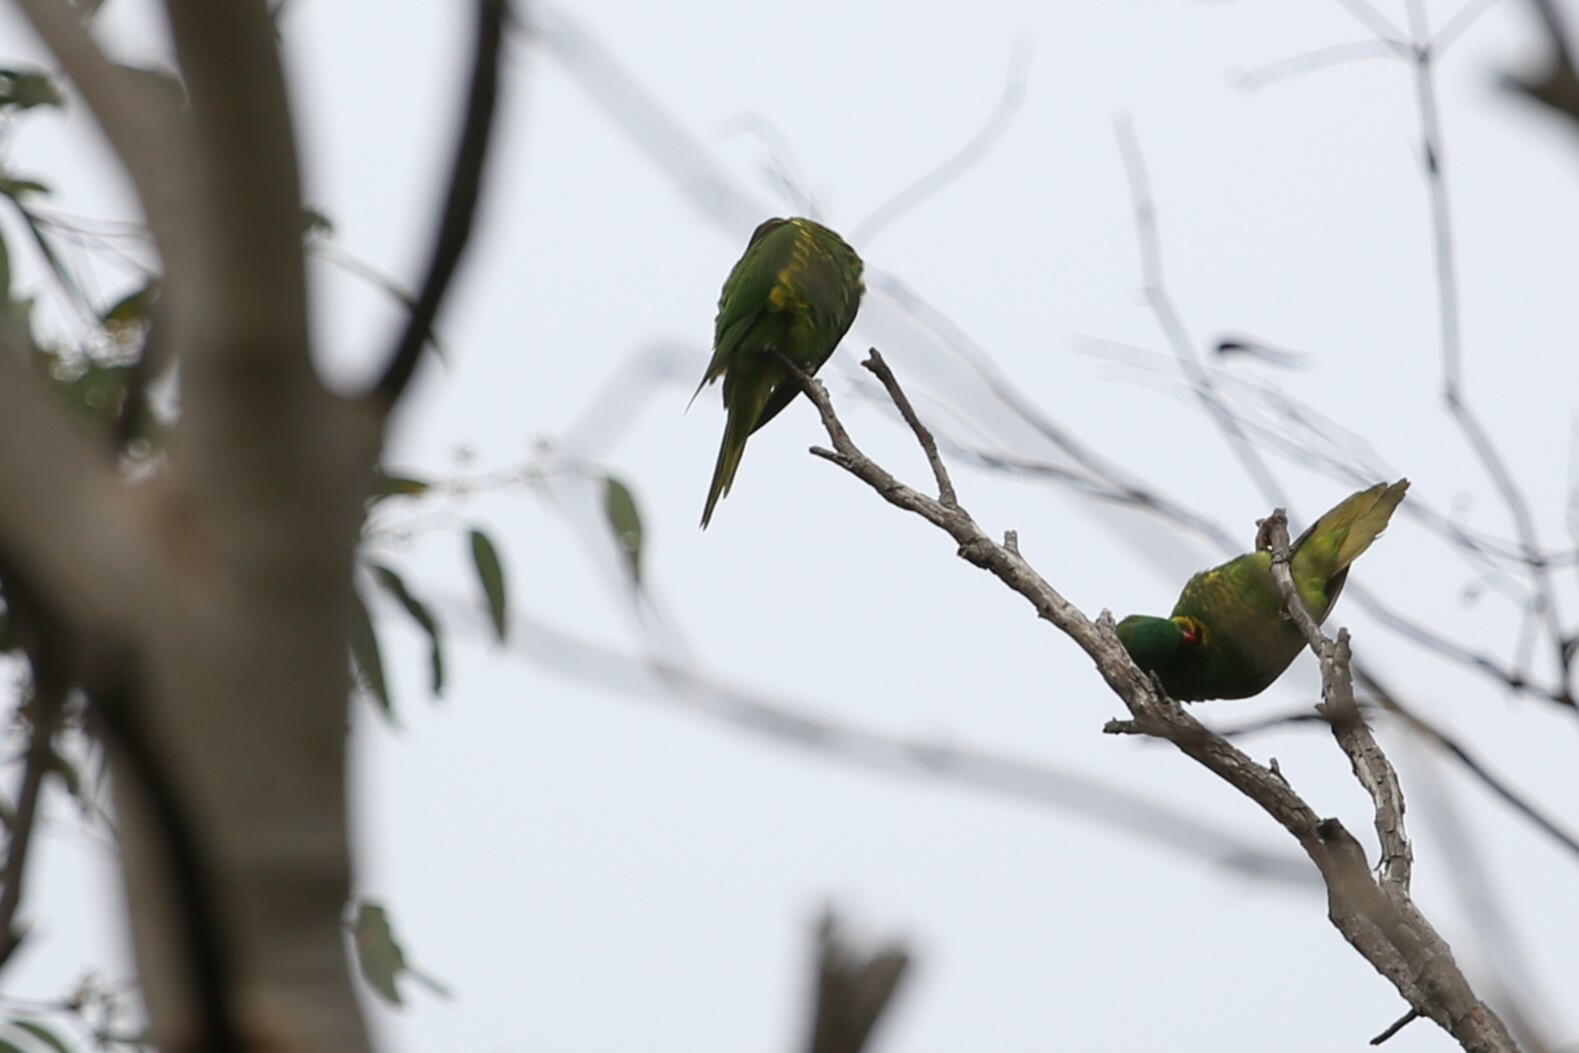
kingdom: Animalia
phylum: Chordata
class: Aves
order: Psittaciformes
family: Psittacidae
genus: Trichoglossus
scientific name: Trichoglossus chlorolepidotus
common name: Scaly-breasted lorikeet
